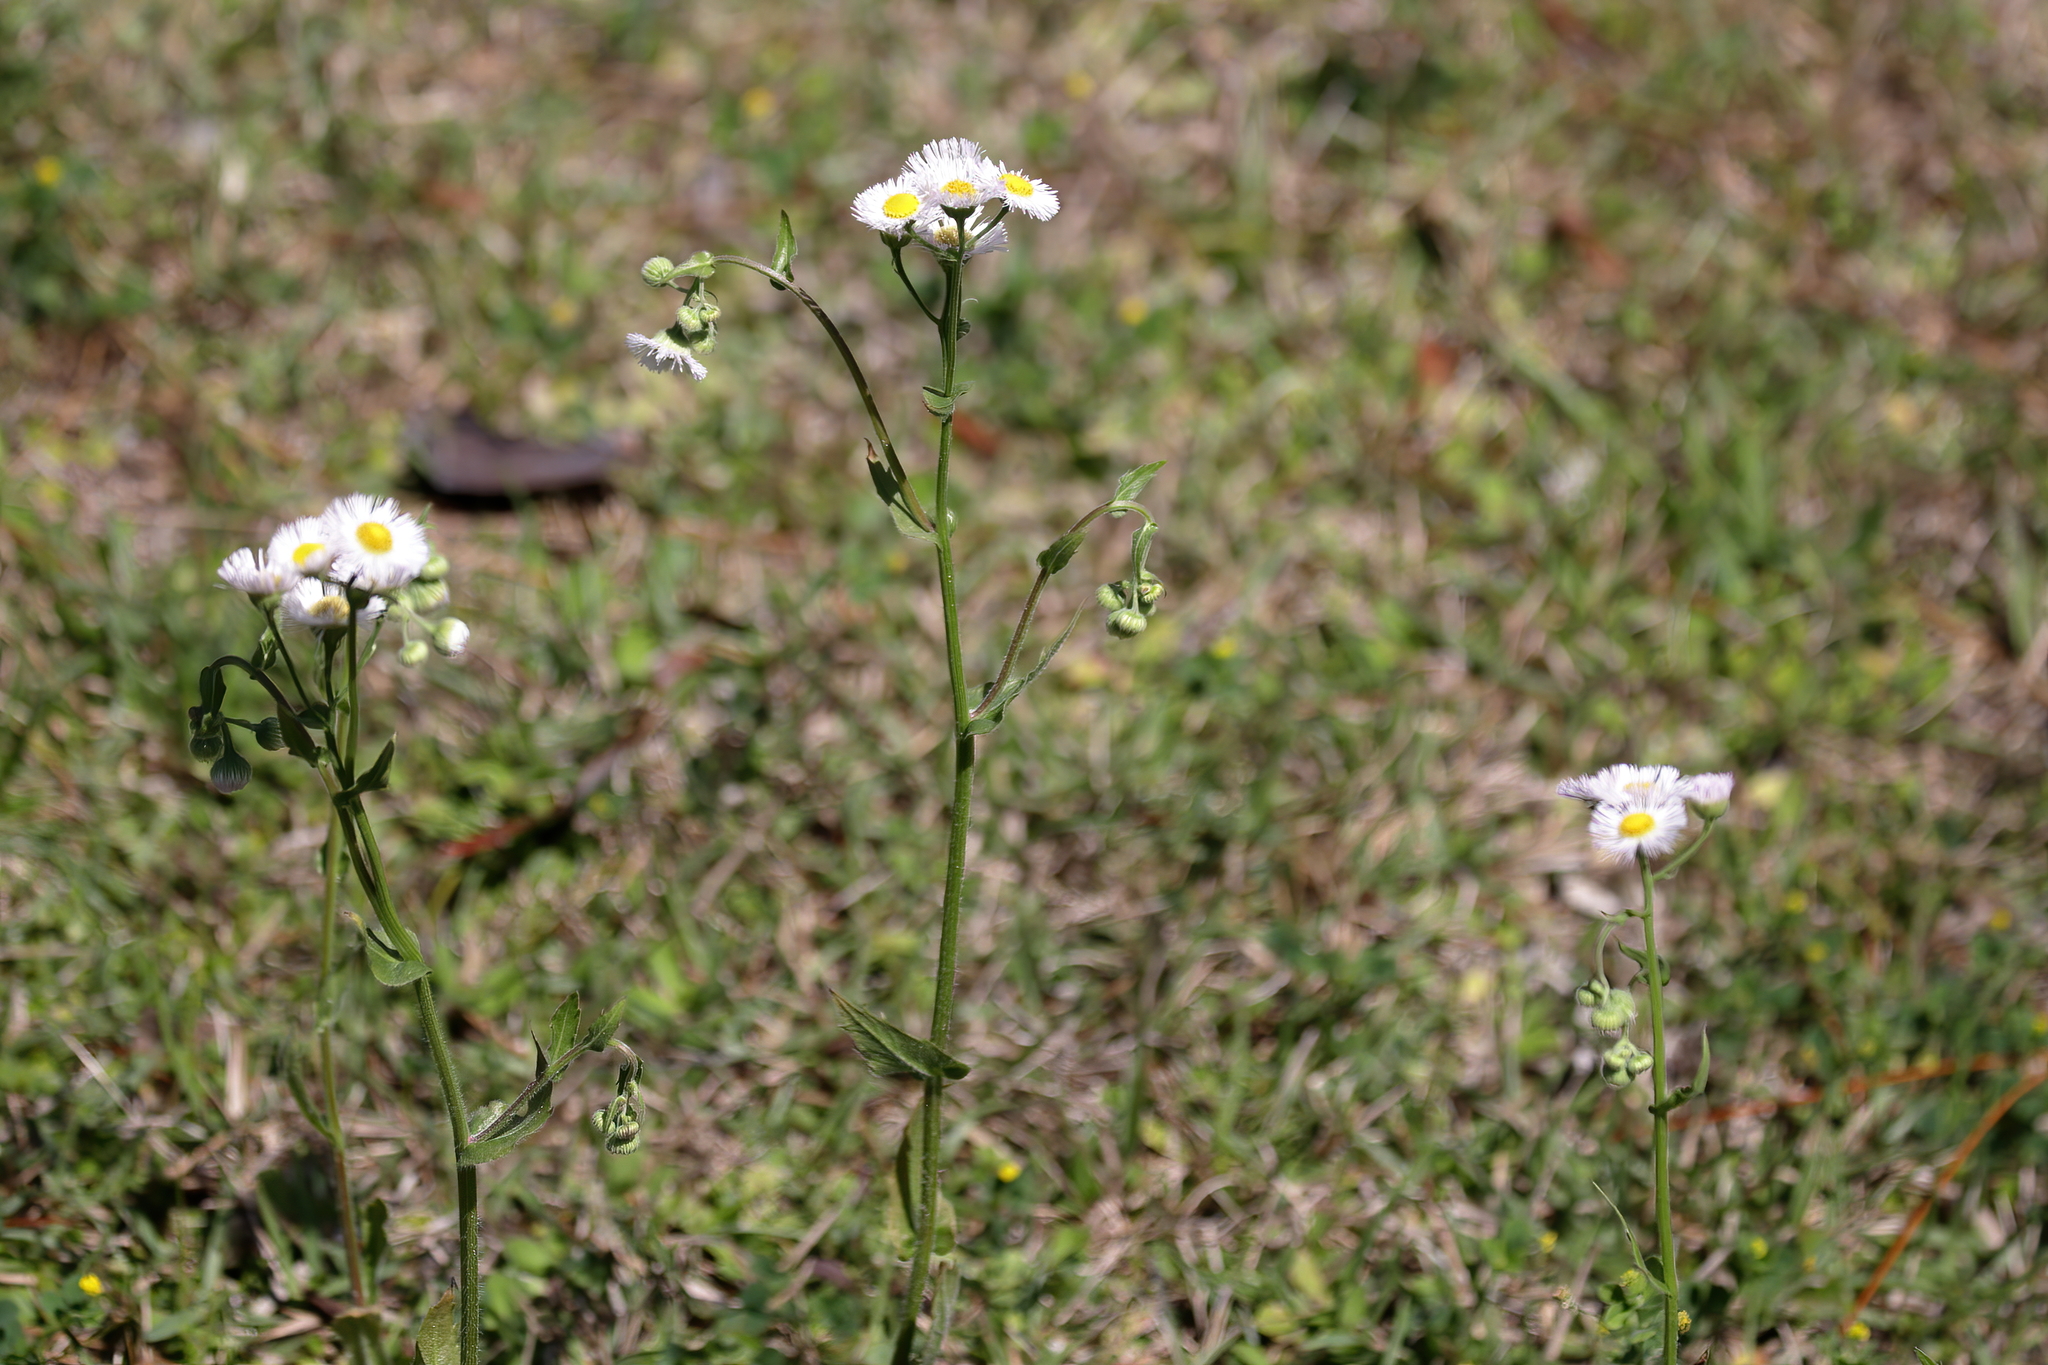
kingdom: Plantae
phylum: Tracheophyta
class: Magnoliopsida
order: Asterales
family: Asteraceae
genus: Erigeron
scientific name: Erigeron philadelphicus
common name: Robin's-plantain
